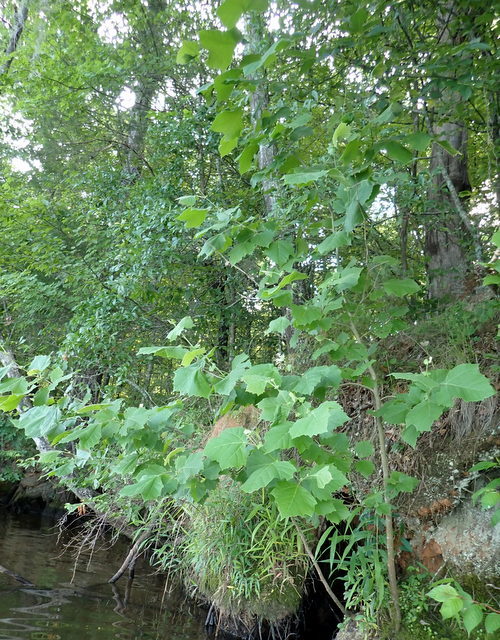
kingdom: Plantae
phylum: Tracheophyta
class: Magnoliopsida
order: Proteales
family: Platanaceae
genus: Platanus
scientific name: Platanus occidentalis
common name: American sycamore
